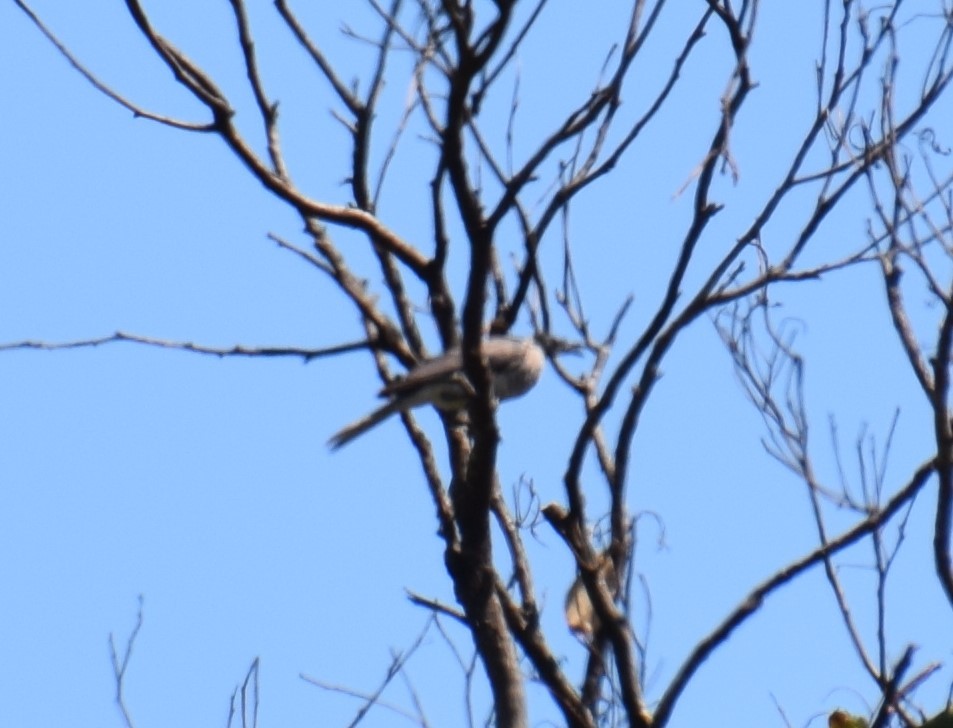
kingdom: Animalia
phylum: Chordata
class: Aves
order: Passeriformes
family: Meliphagidae
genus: Philemon
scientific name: Philemon corniculatus
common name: Noisy friarbird
